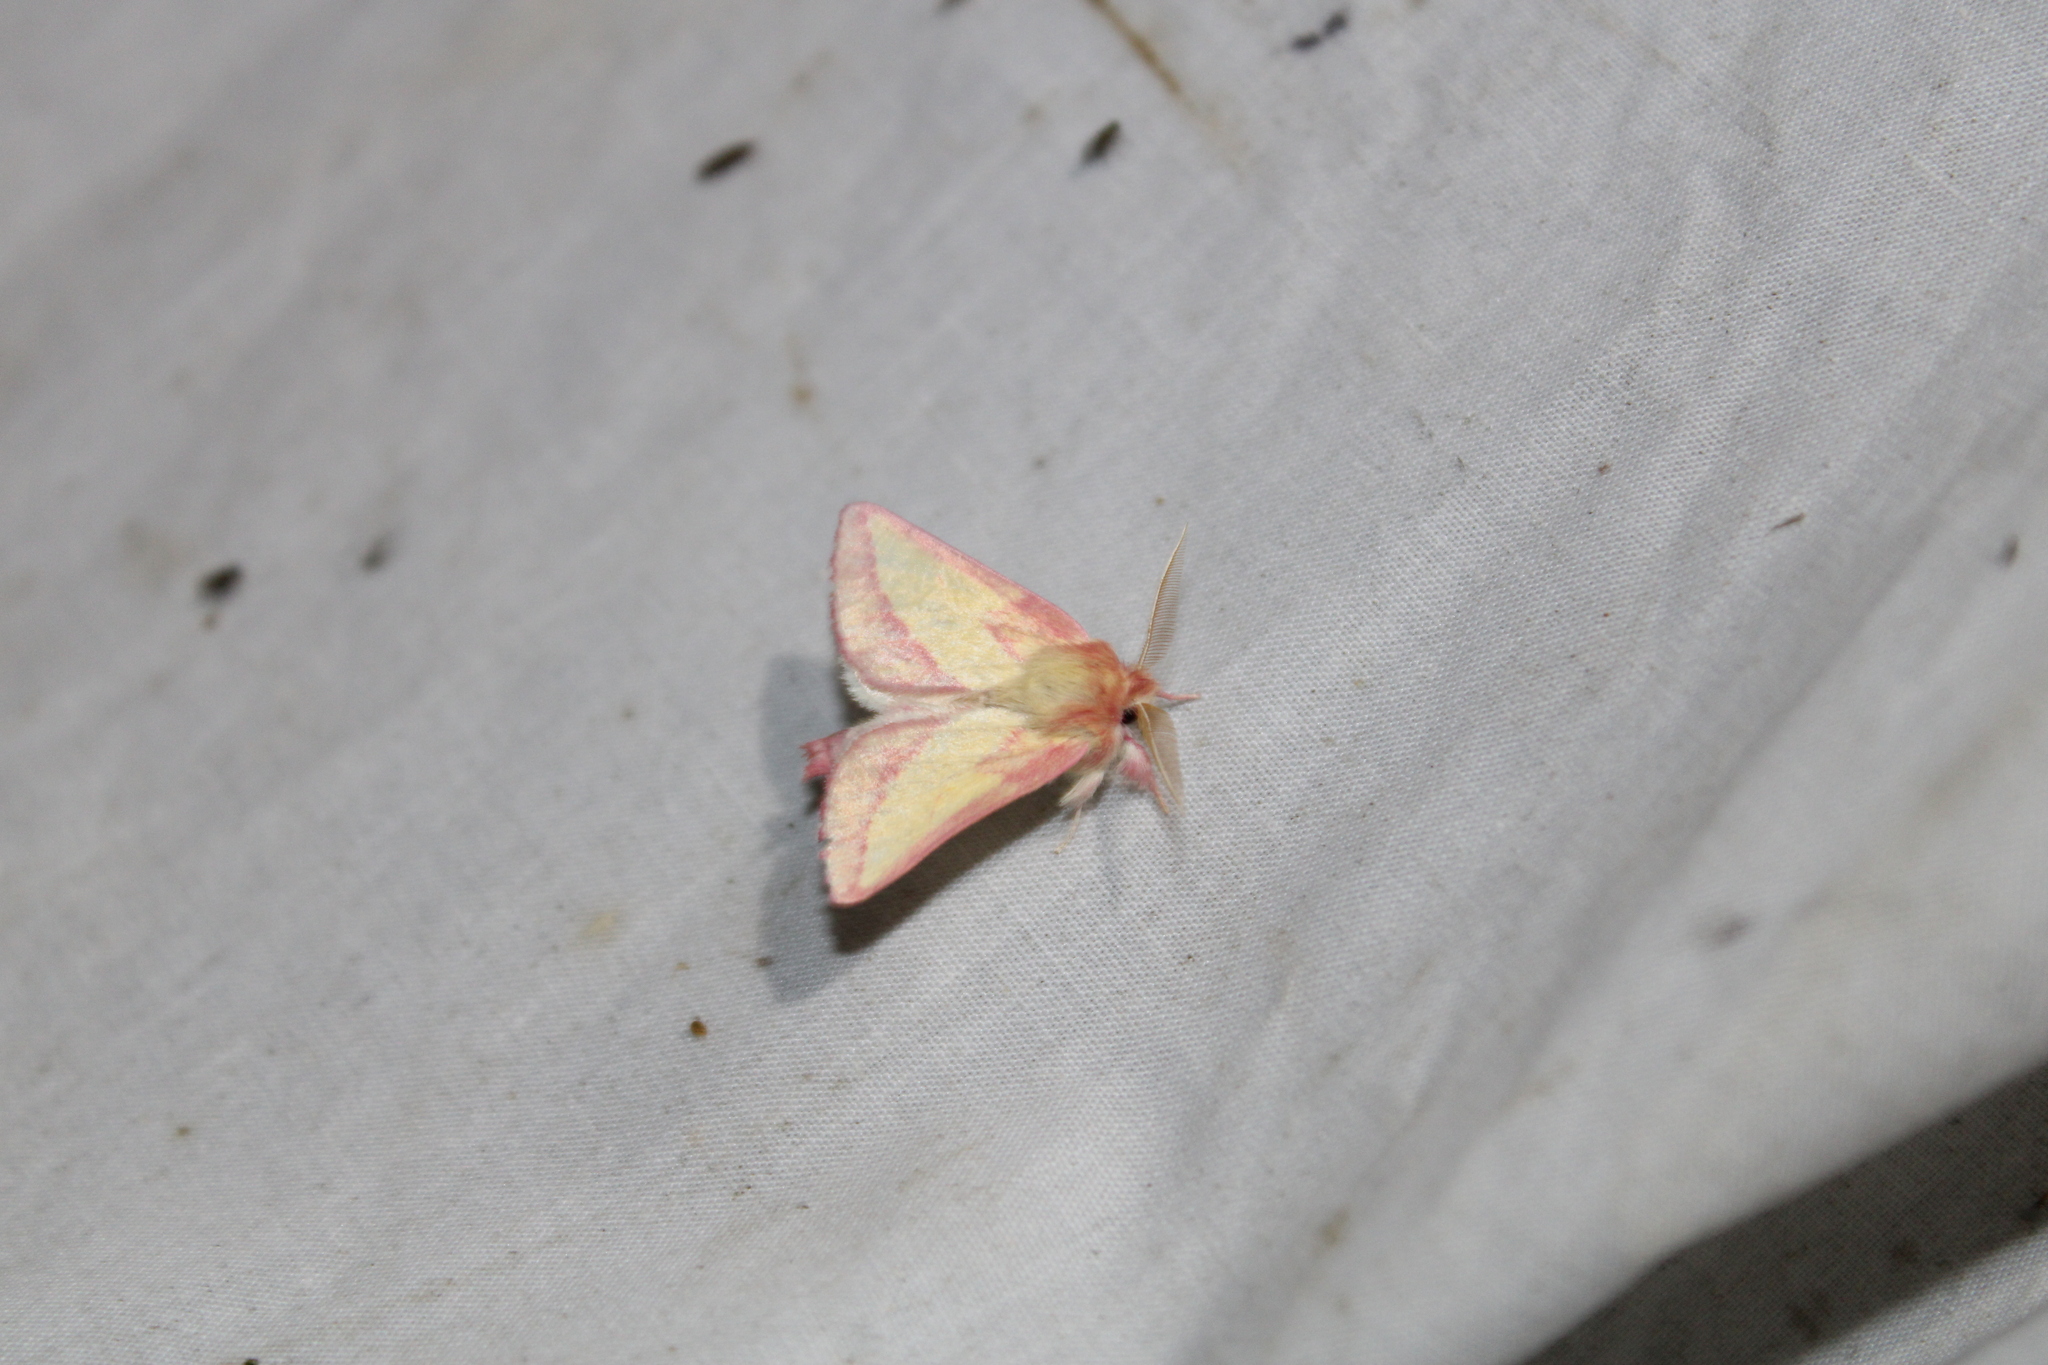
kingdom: Animalia
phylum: Arthropoda
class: Insecta
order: Lepidoptera
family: Notodontidae
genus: Hyparpax
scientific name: Hyparpax aurora
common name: Pink prominent
